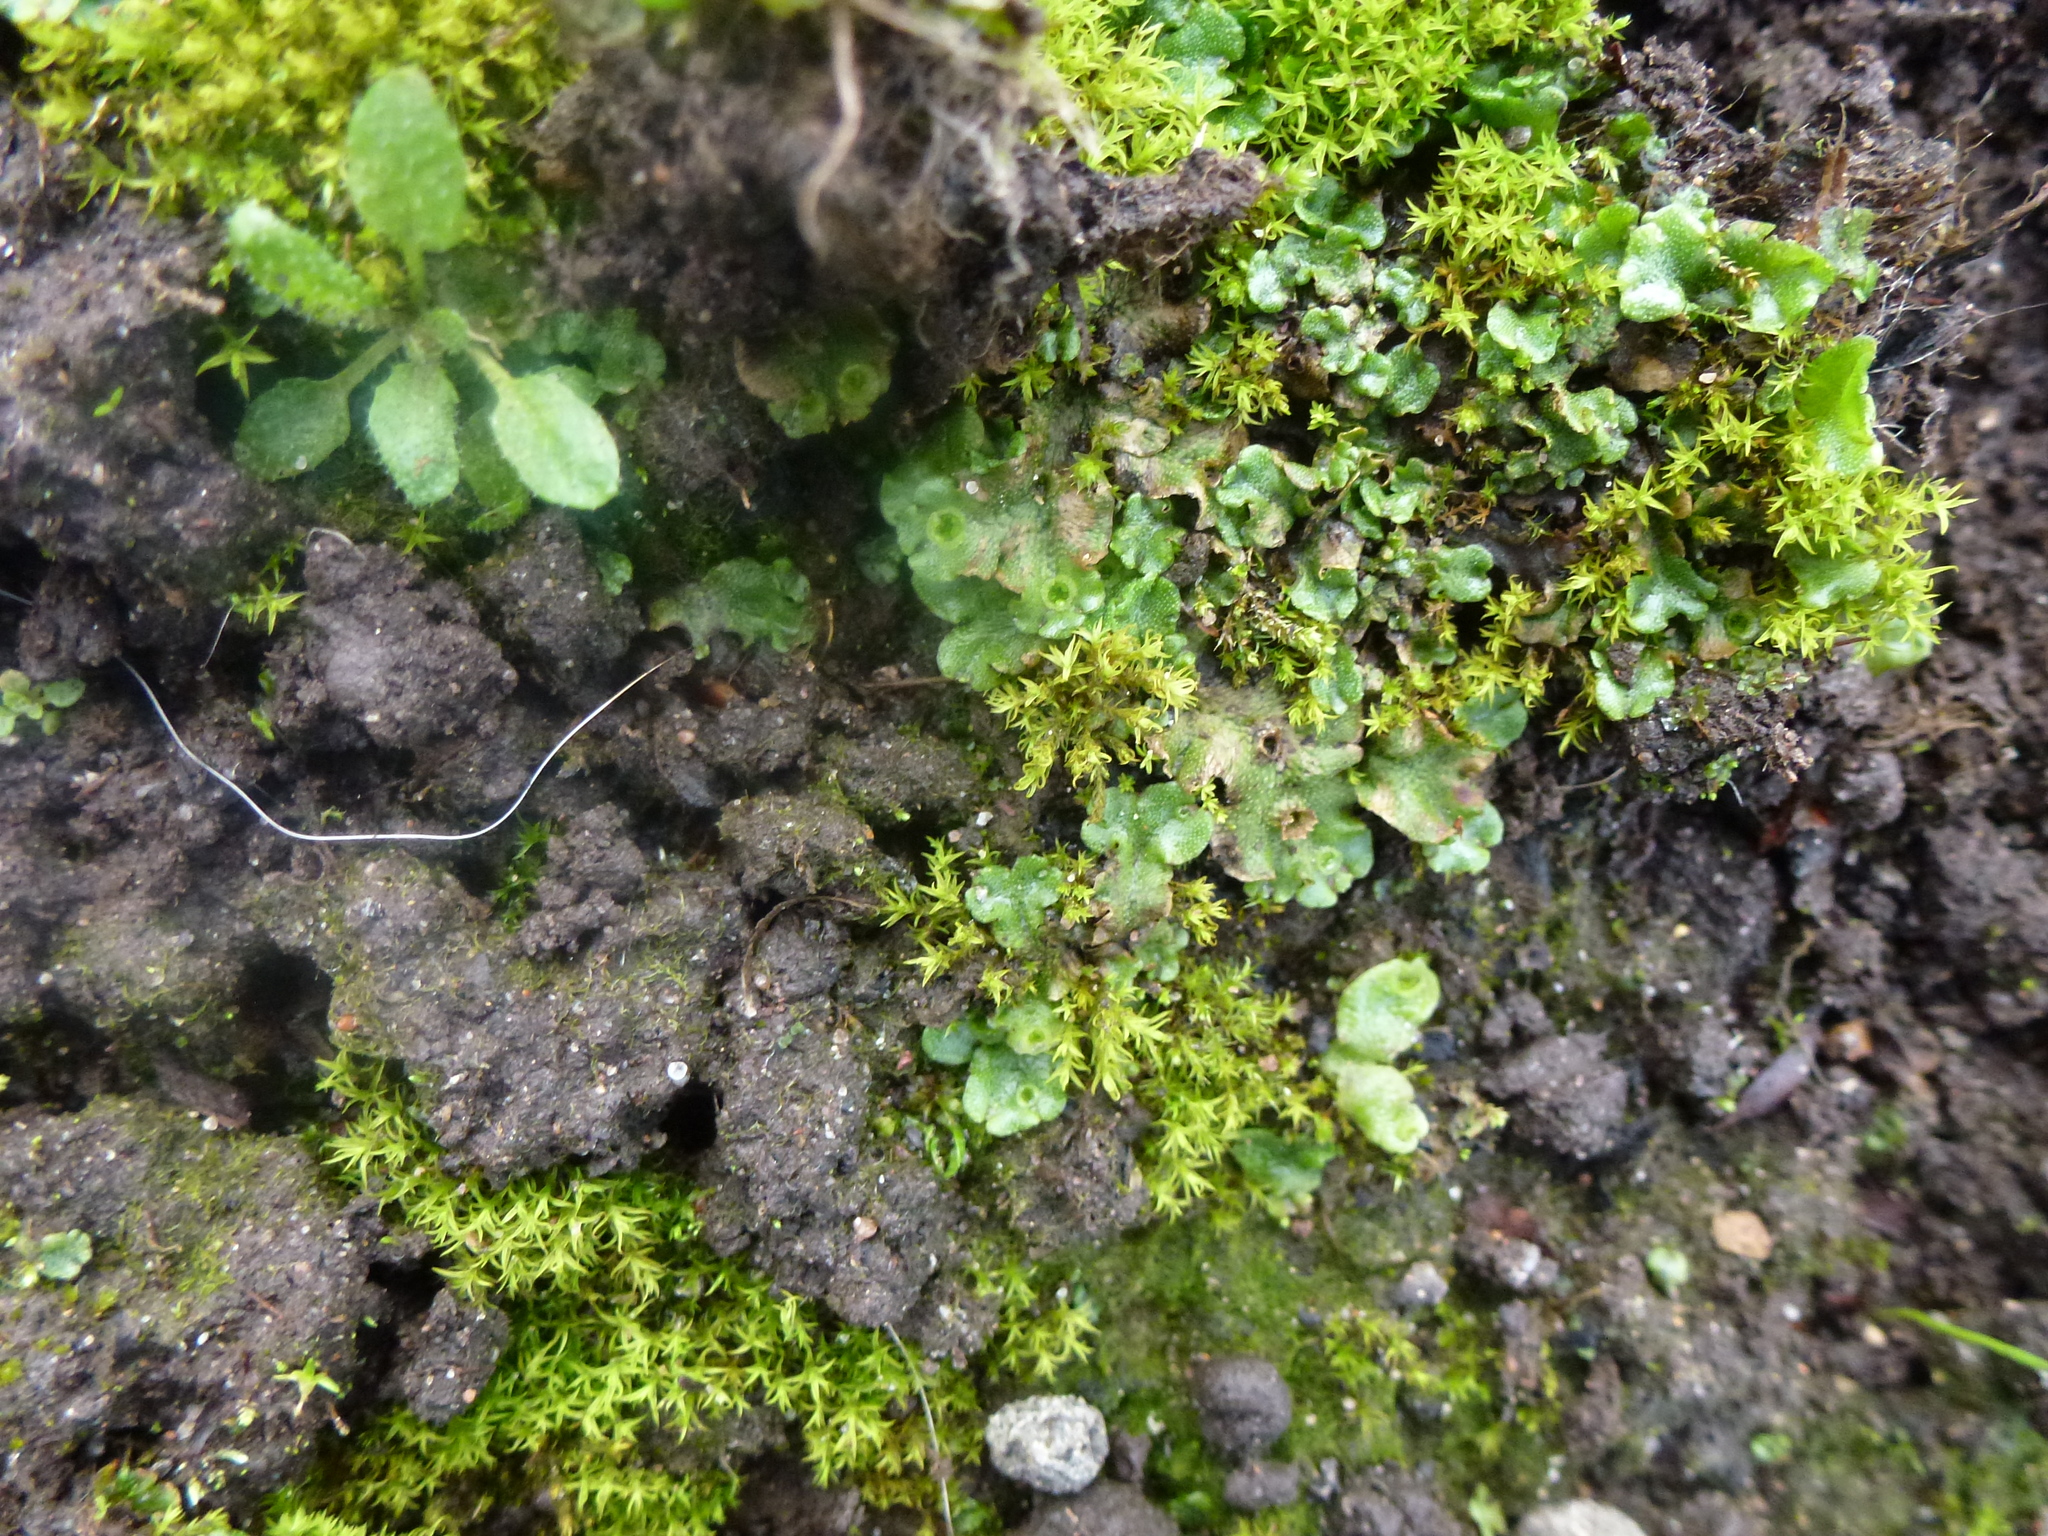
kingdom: Plantae
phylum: Marchantiophyta
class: Marchantiopsida
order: Marchantiales
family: Marchantiaceae
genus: Marchantia
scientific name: Marchantia polymorpha
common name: Common liverwort
